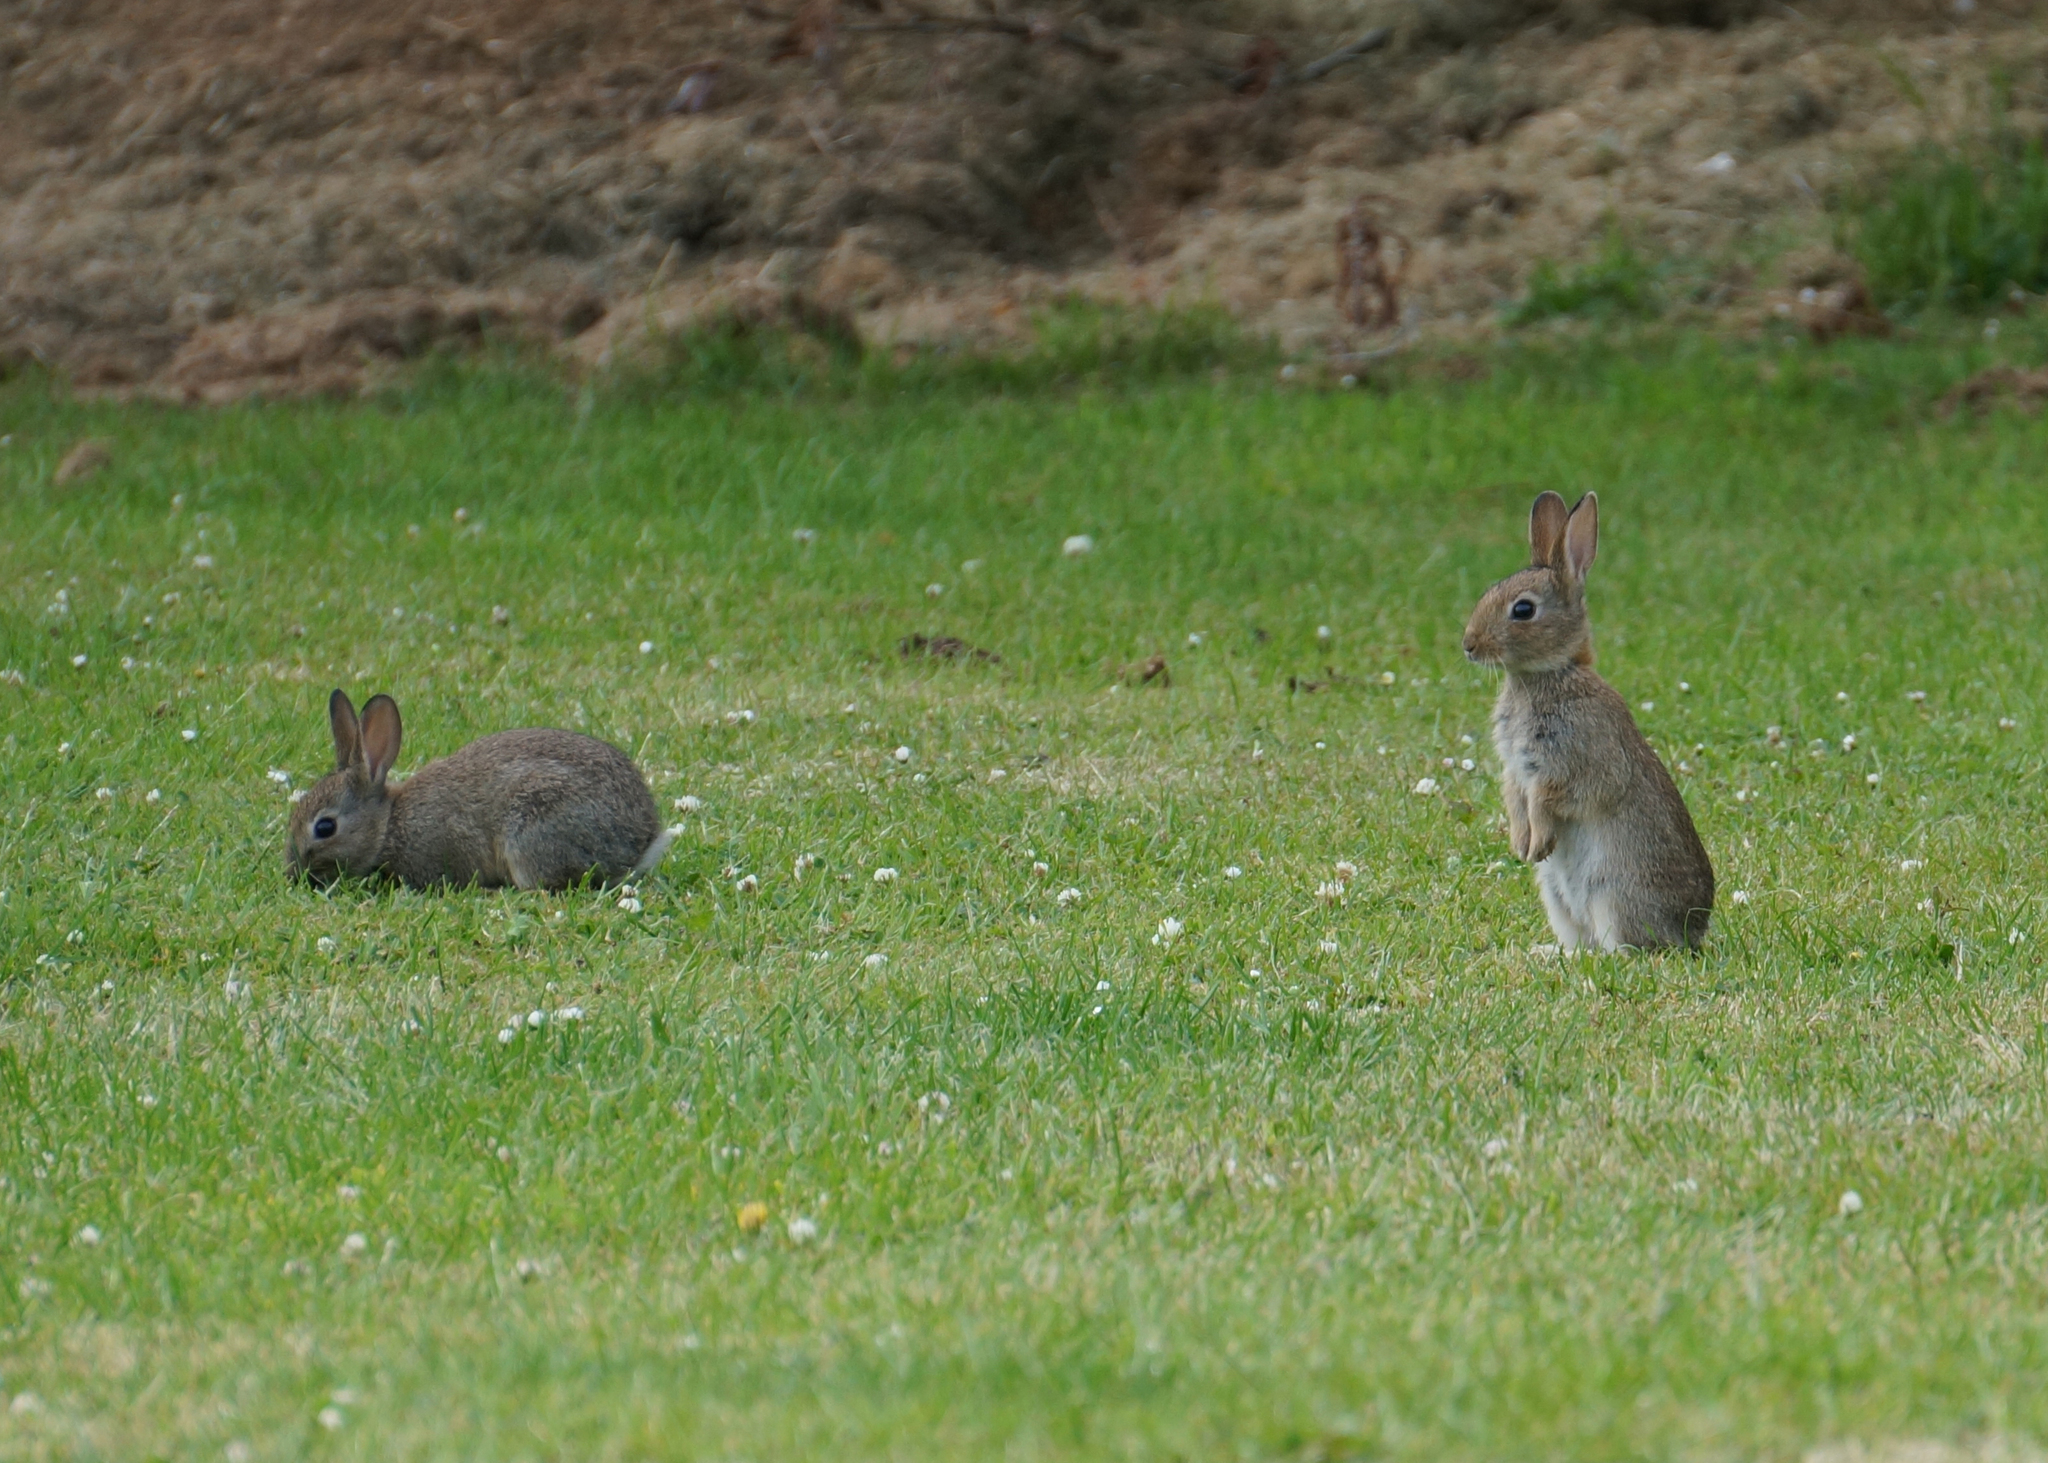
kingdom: Animalia
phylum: Chordata
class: Mammalia
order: Lagomorpha
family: Leporidae
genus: Oryctolagus
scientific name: Oryctolagus cuniculus
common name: European rabbit
